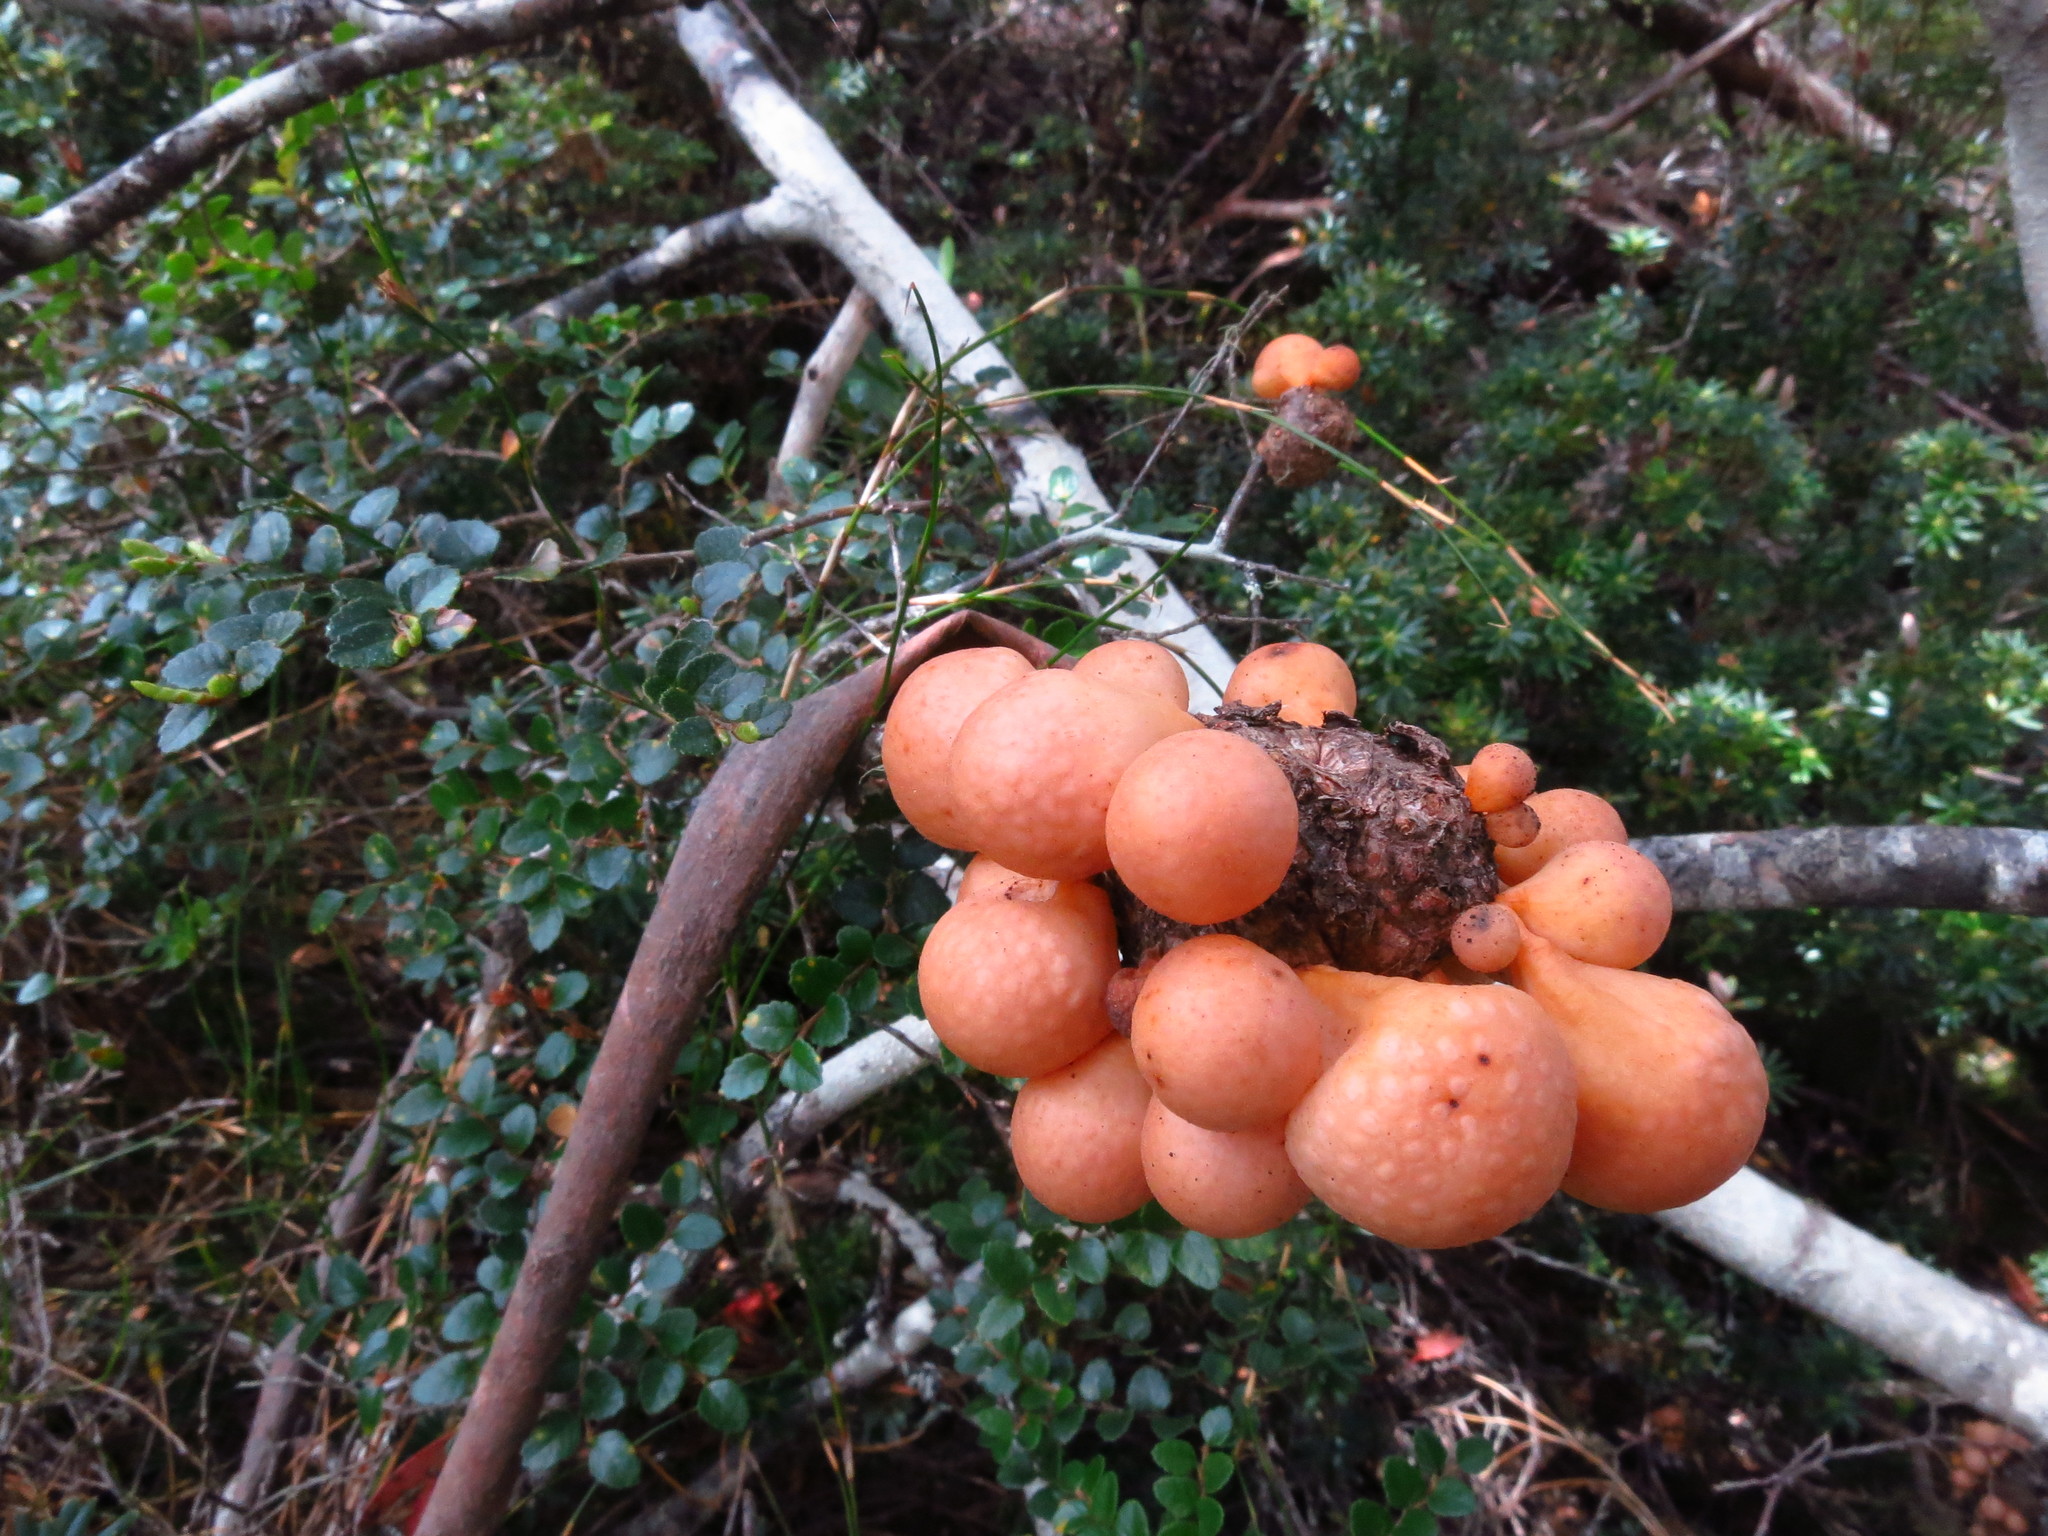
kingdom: Fungi
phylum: Ascomycota
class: Leotiomycetes
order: Cyttariales
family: Cyttariaceae
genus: Cyttaria
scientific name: Cyttaria gunnii
